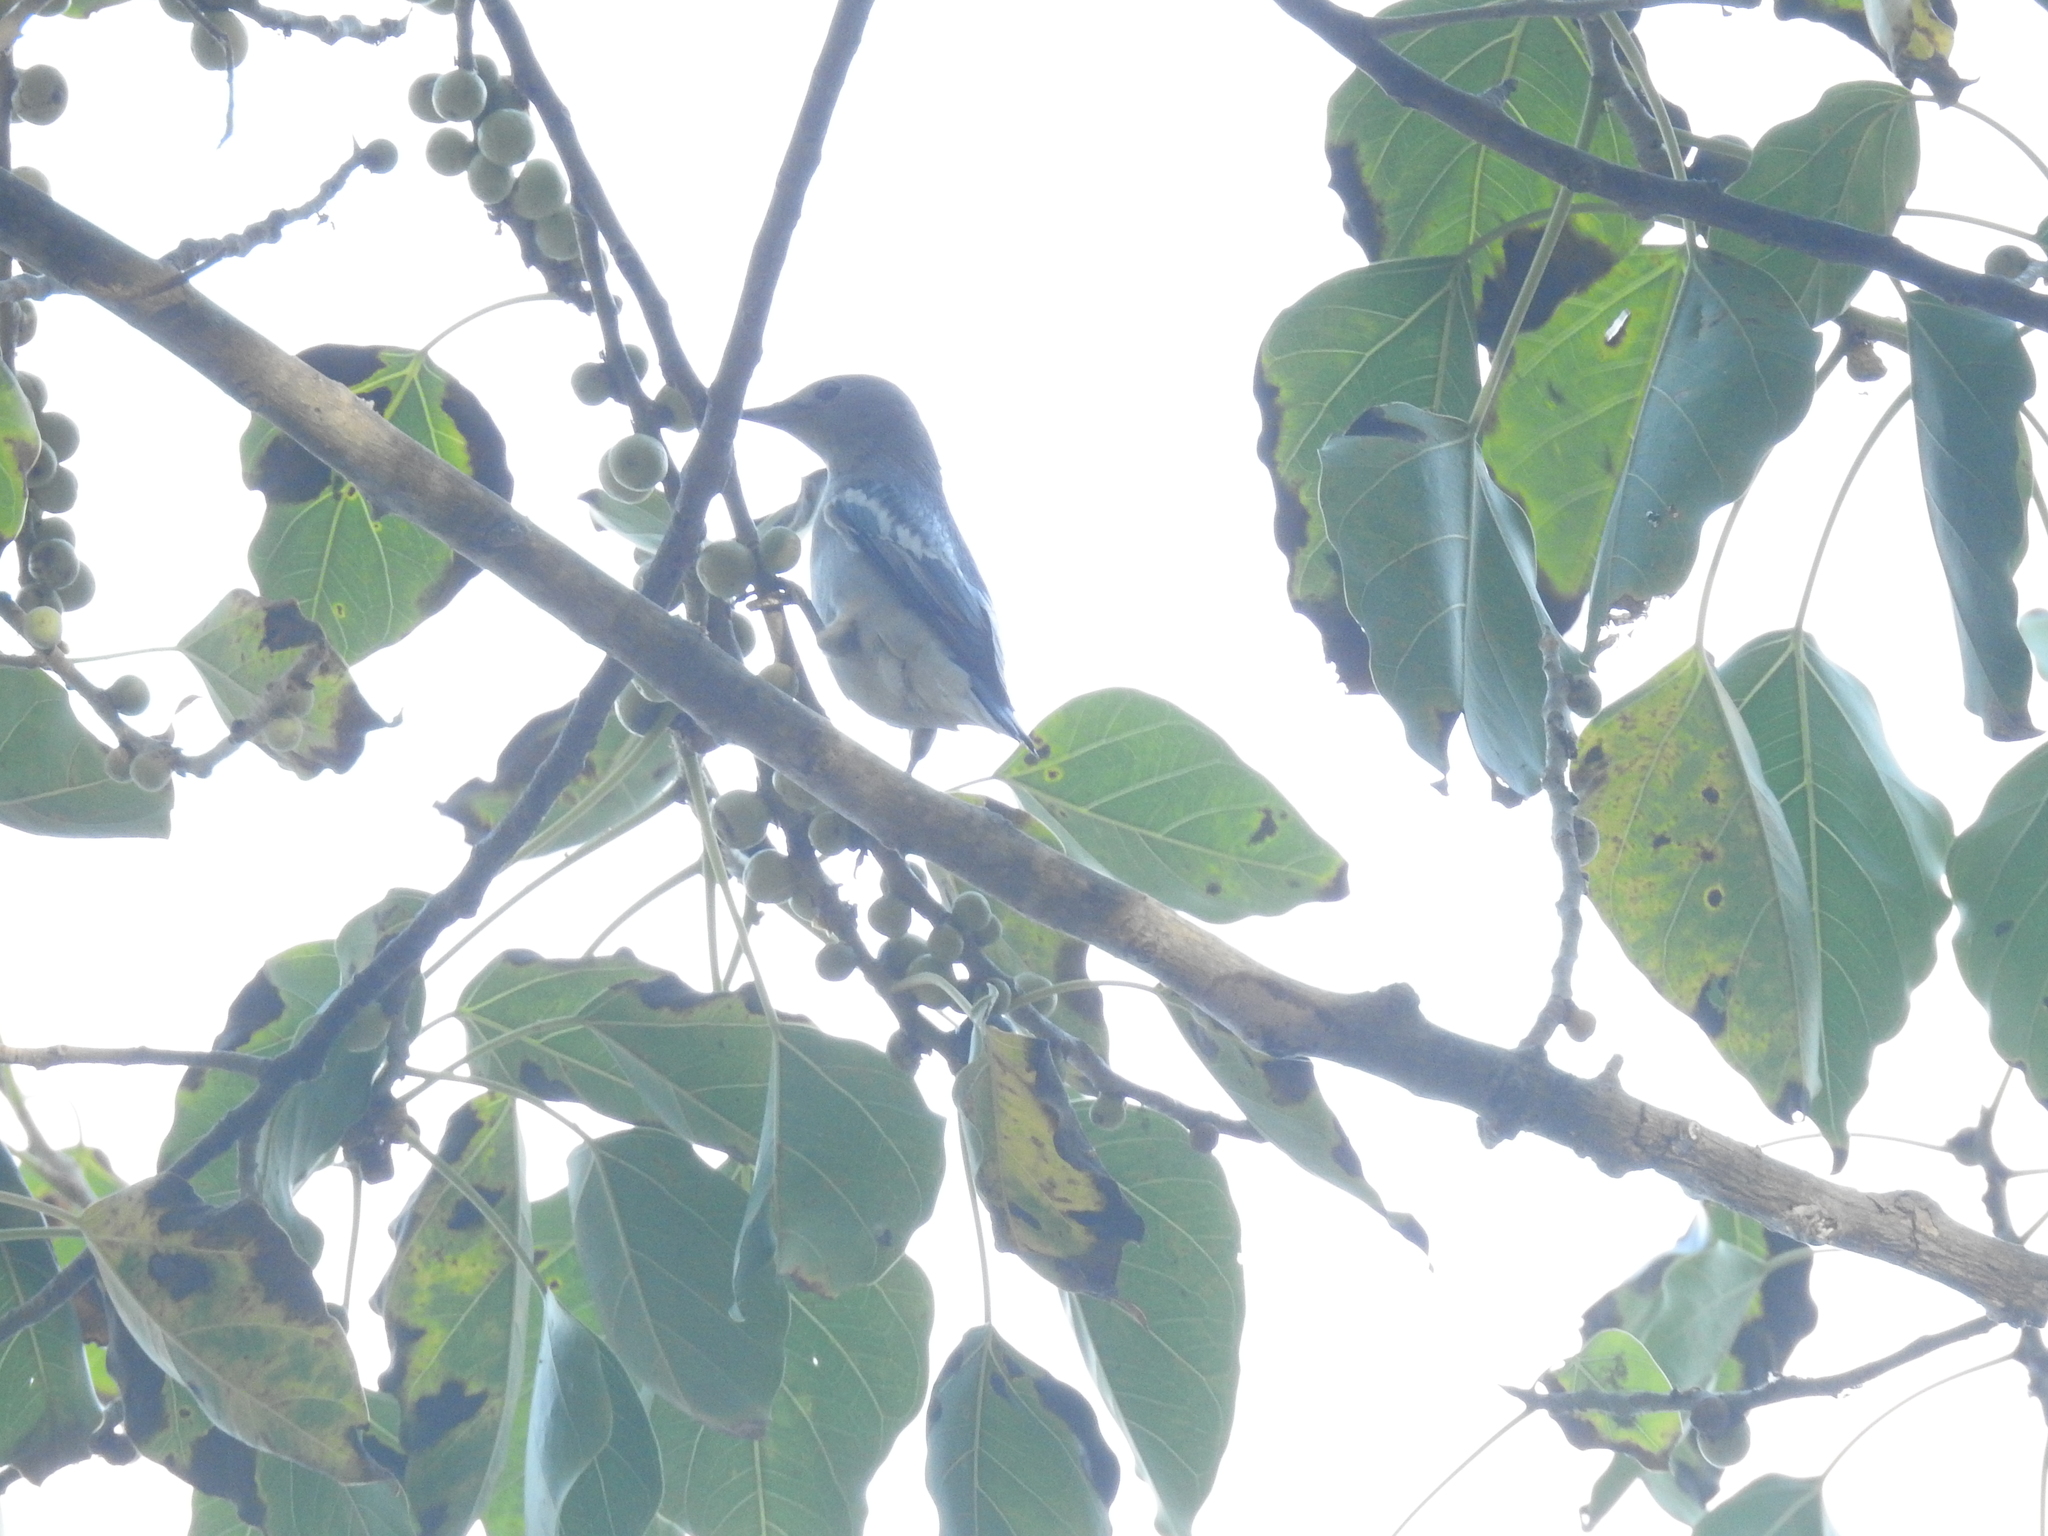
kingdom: Animalia
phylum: Chordata
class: Aves
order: Passeriformes
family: Sturnidae
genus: Agropsar
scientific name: Agropsar sturninus
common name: Daurian starling
